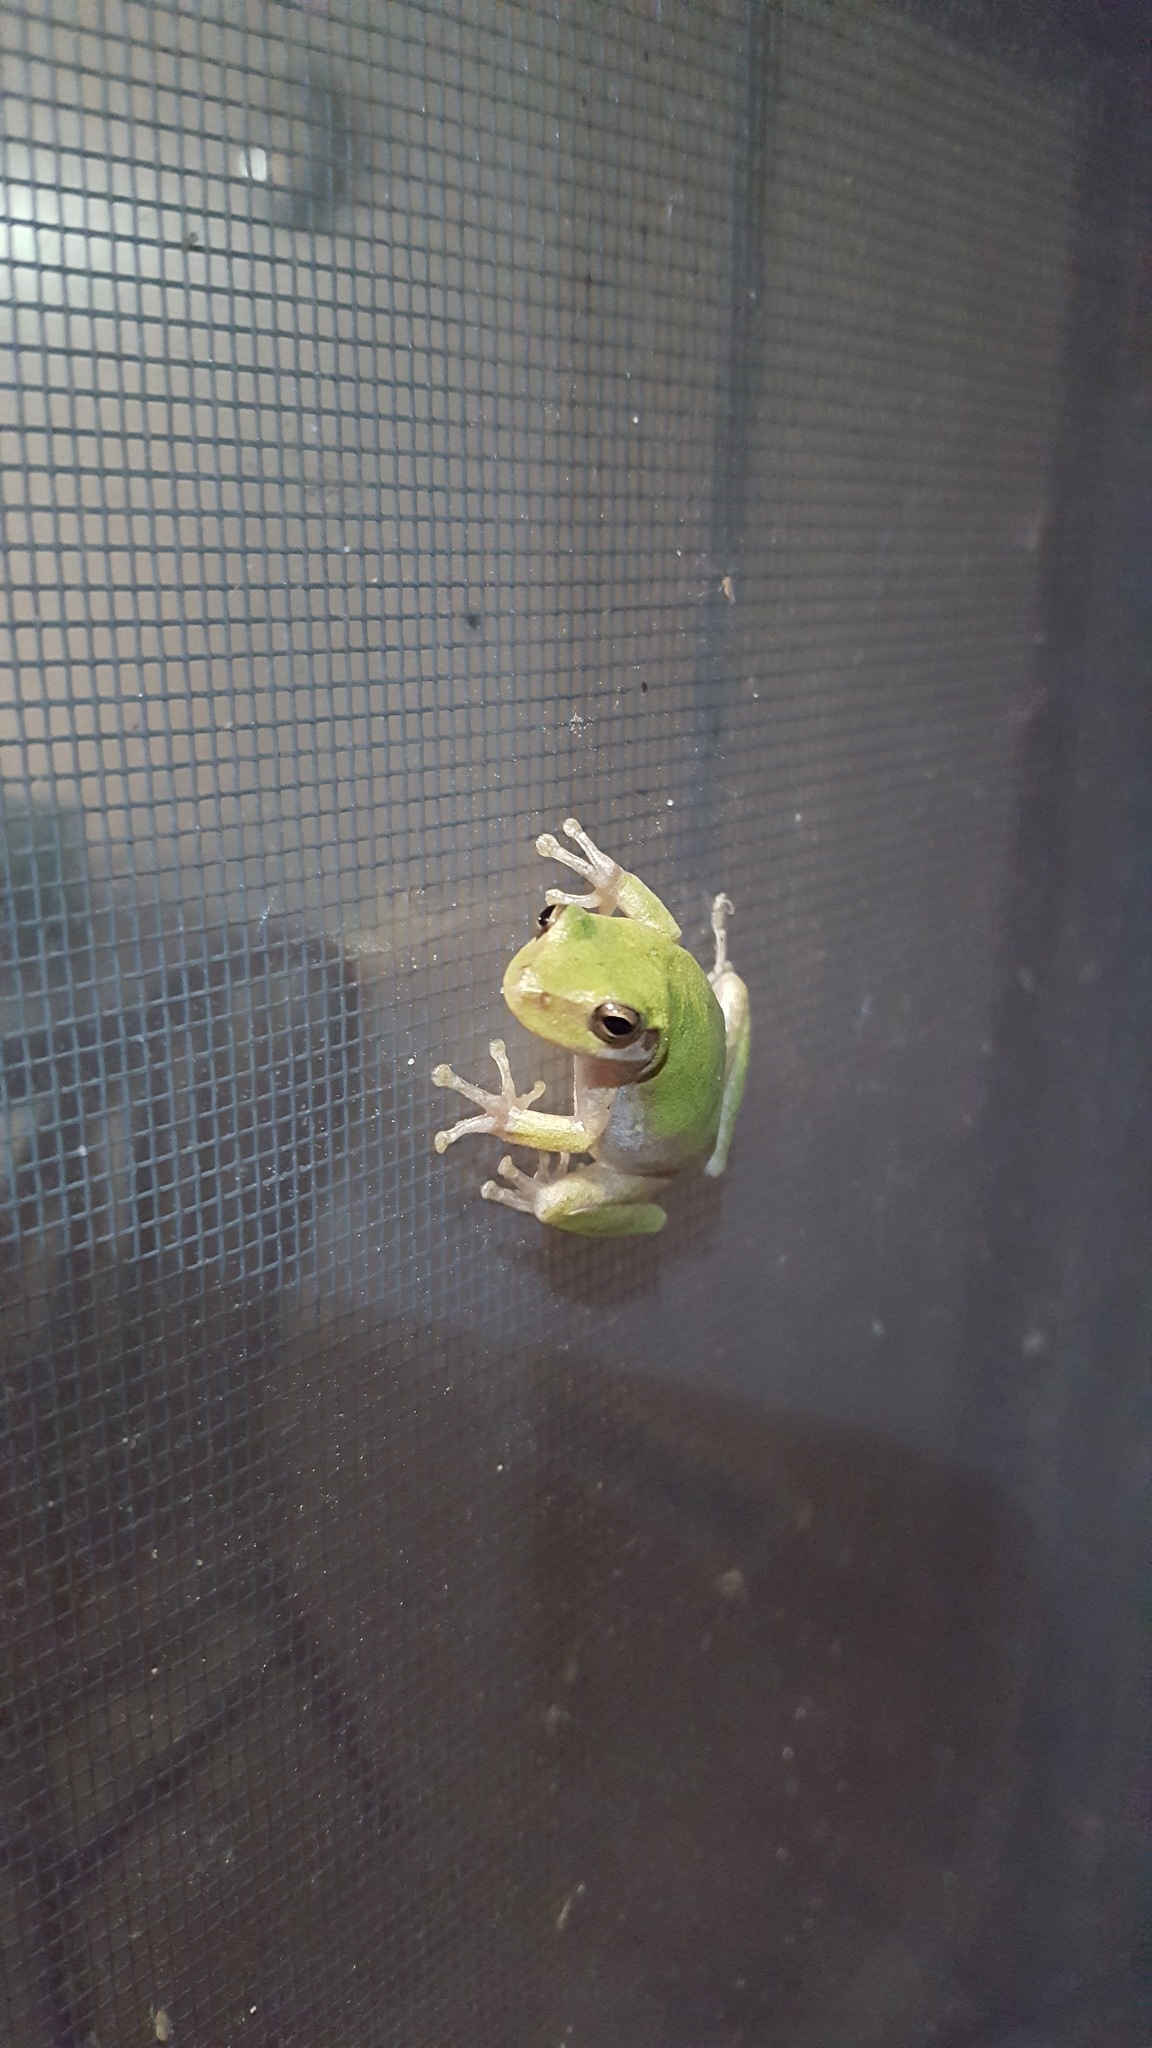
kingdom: Animalia
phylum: Chordata
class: Amphibia
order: Anura
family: Hylidae
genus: Dryophytes
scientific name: Dryophytes squirellus
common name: Squirrel treefrog
